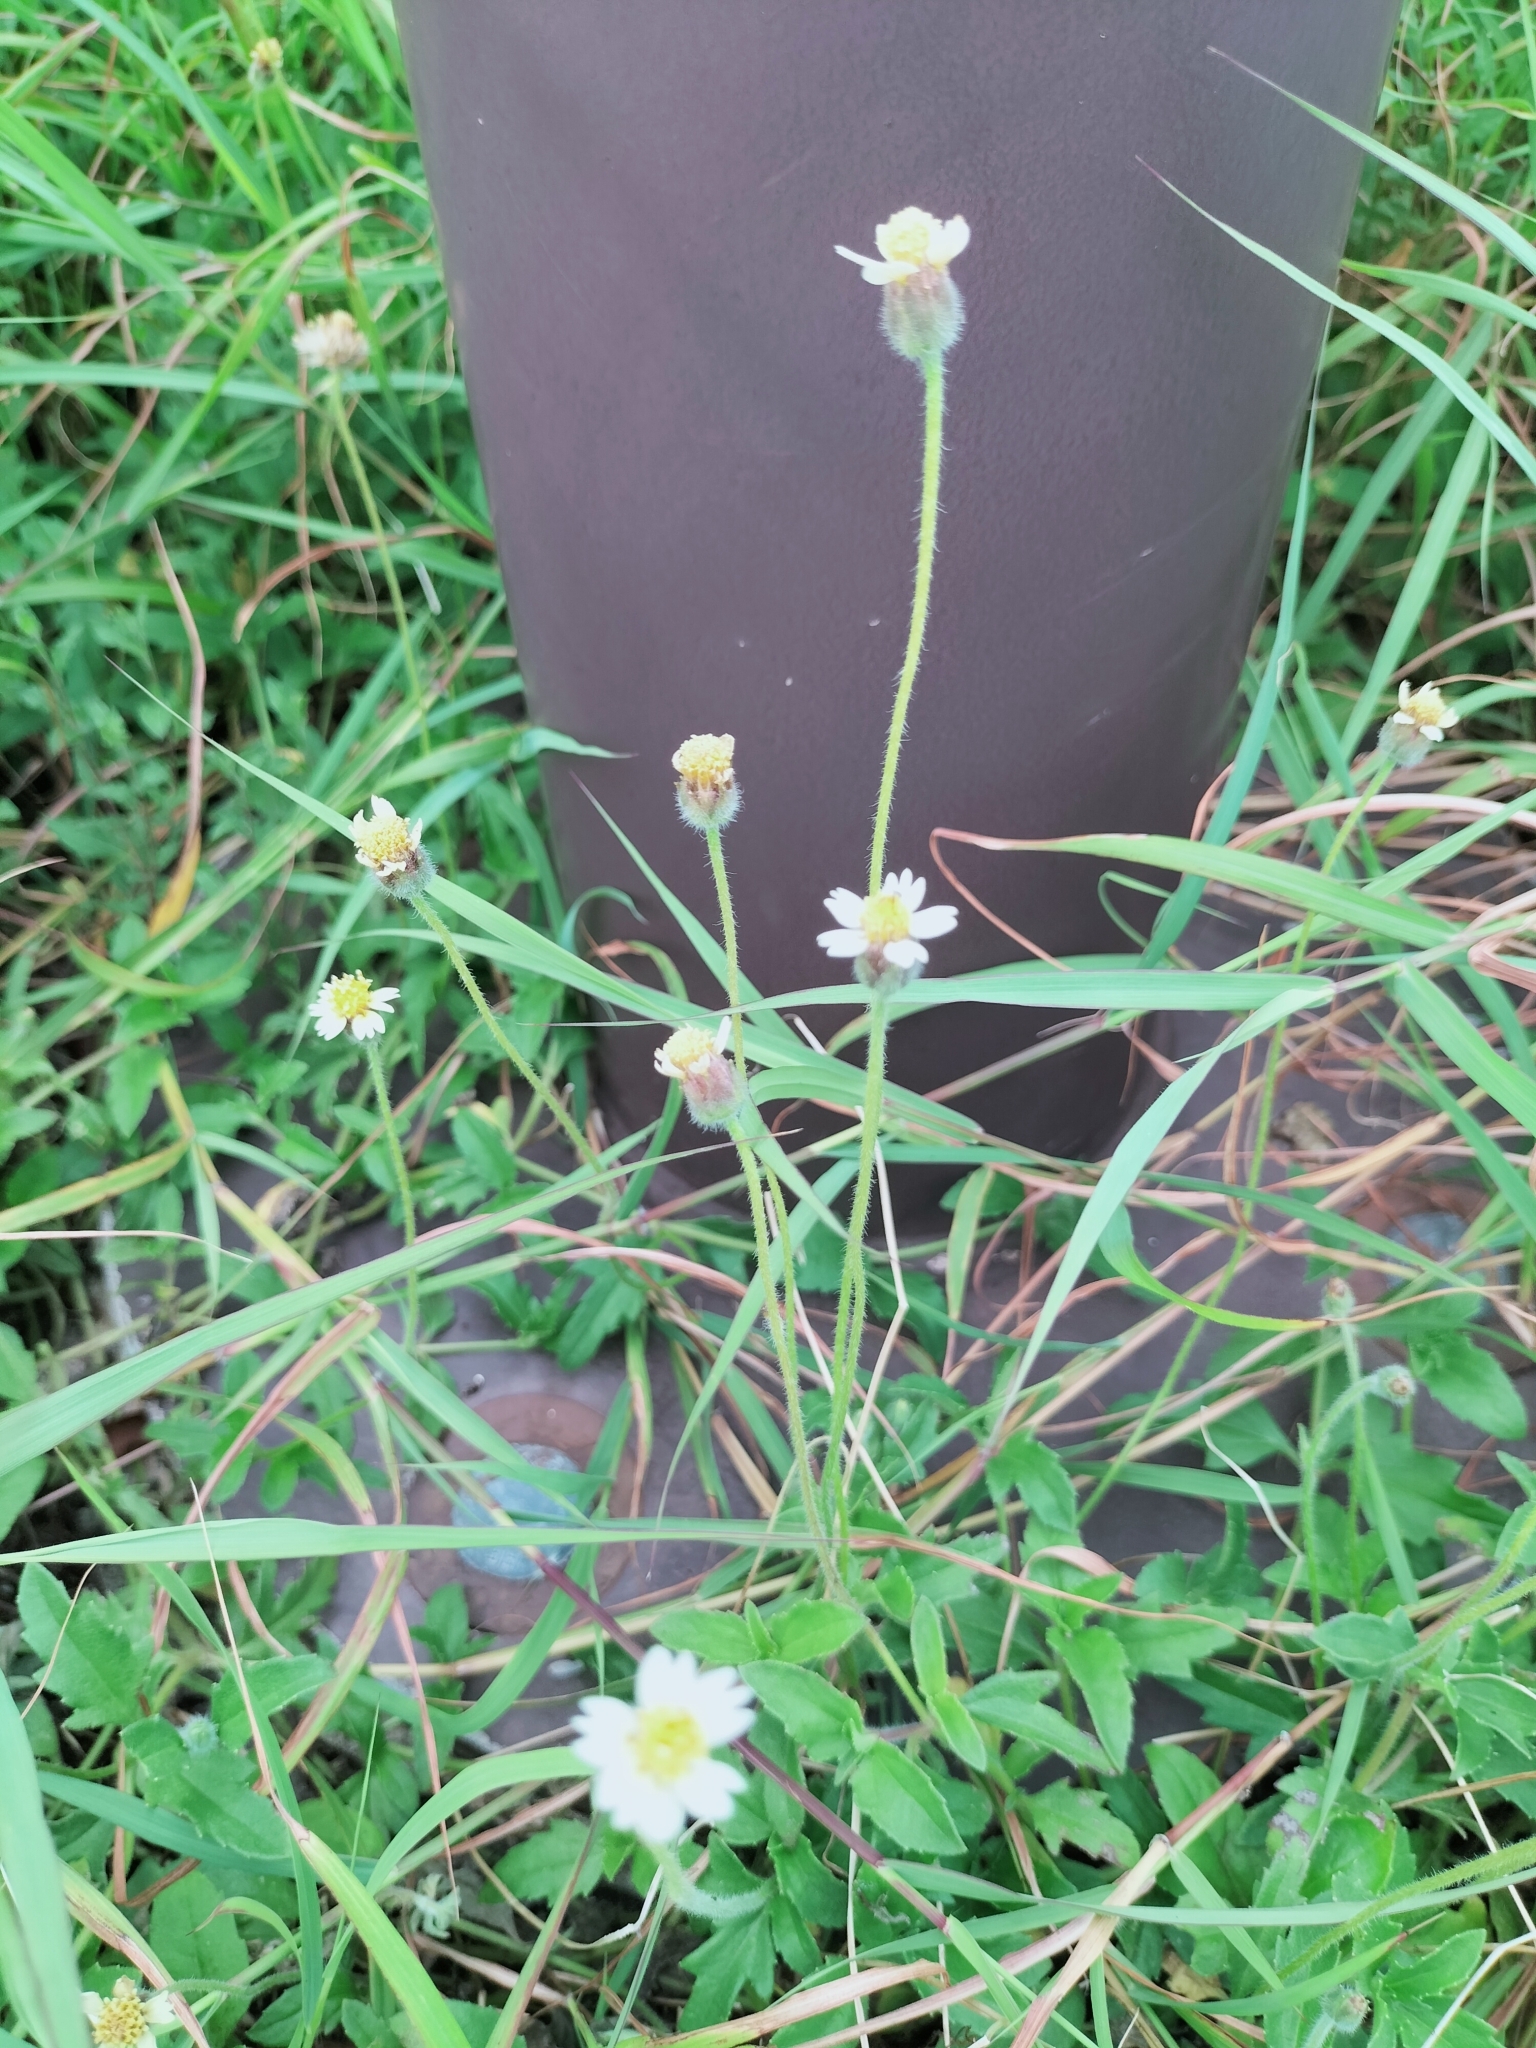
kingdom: Plantae
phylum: Tracheophyta
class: Magnoliopsida
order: Asterales
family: Asteraceae
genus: Tridax
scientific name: Tridax procumbens
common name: Coatbuttons
